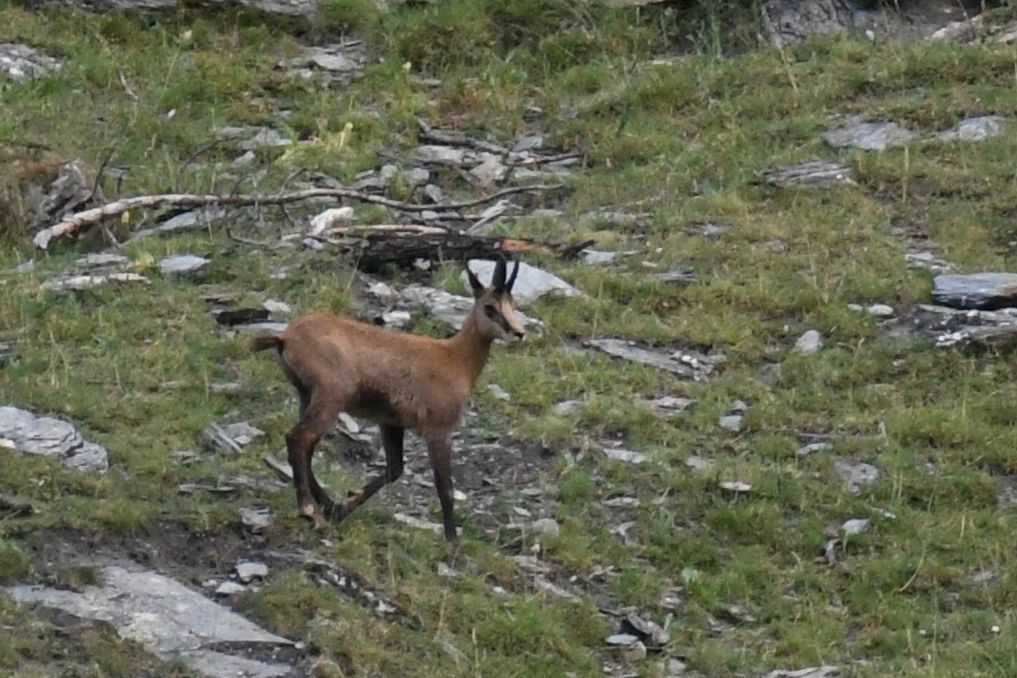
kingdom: Animalia
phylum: Chordata
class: Mammalia
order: Artiodactyla
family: Bovidae
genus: Rupicapra
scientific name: Rupicapra rupicapra
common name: Chamois
